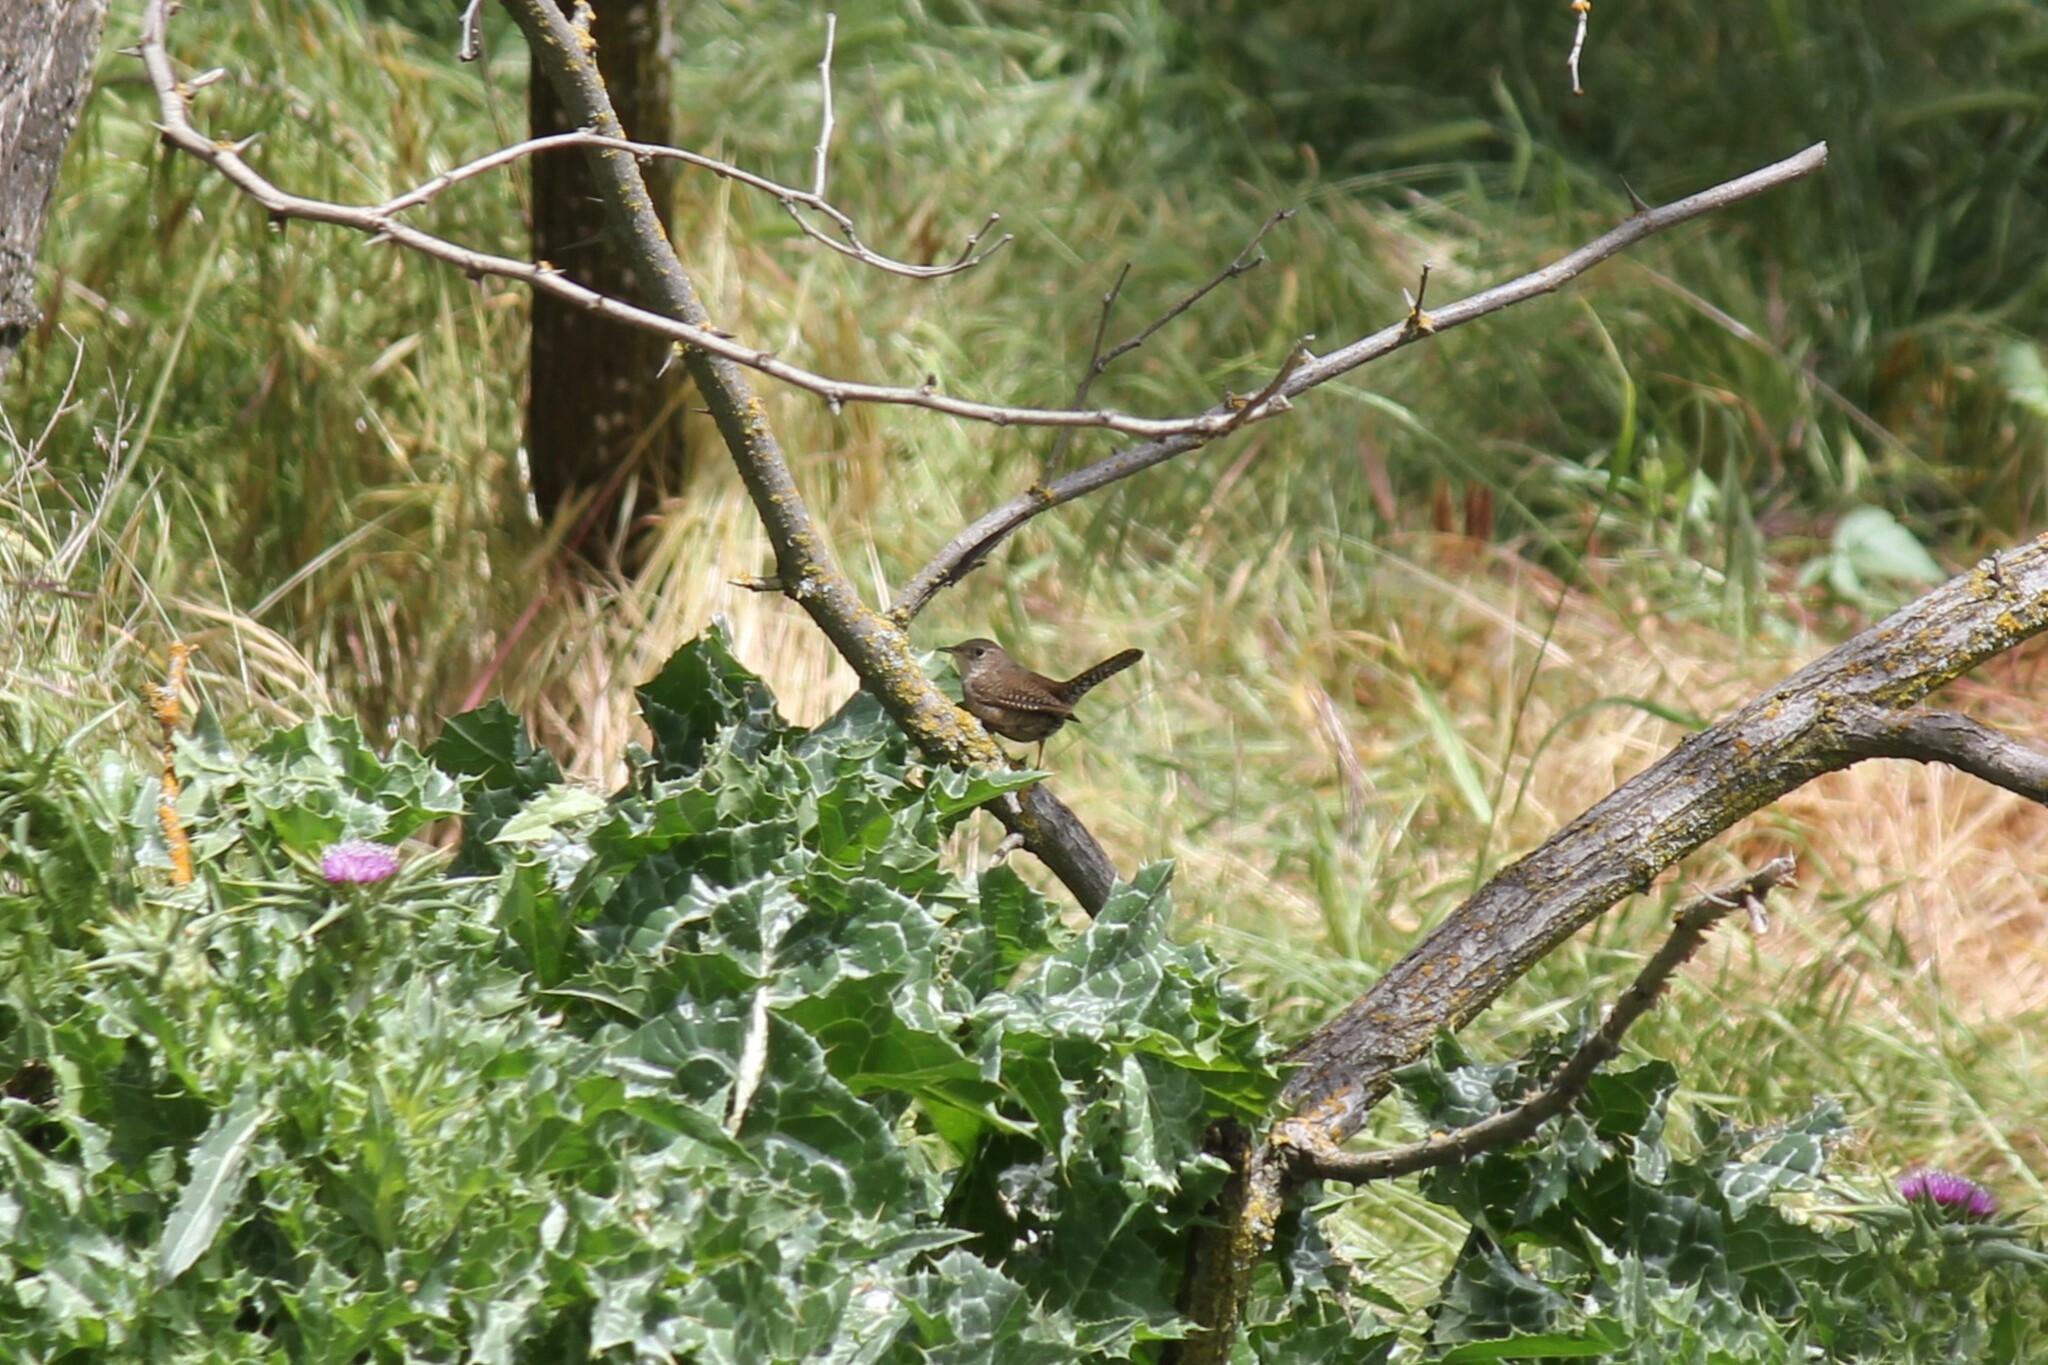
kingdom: Animalia
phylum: Chordata
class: Aves
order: Passeriformes
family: Troglodytidae
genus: Troglodytes
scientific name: Troglodytes aedon
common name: House wren
